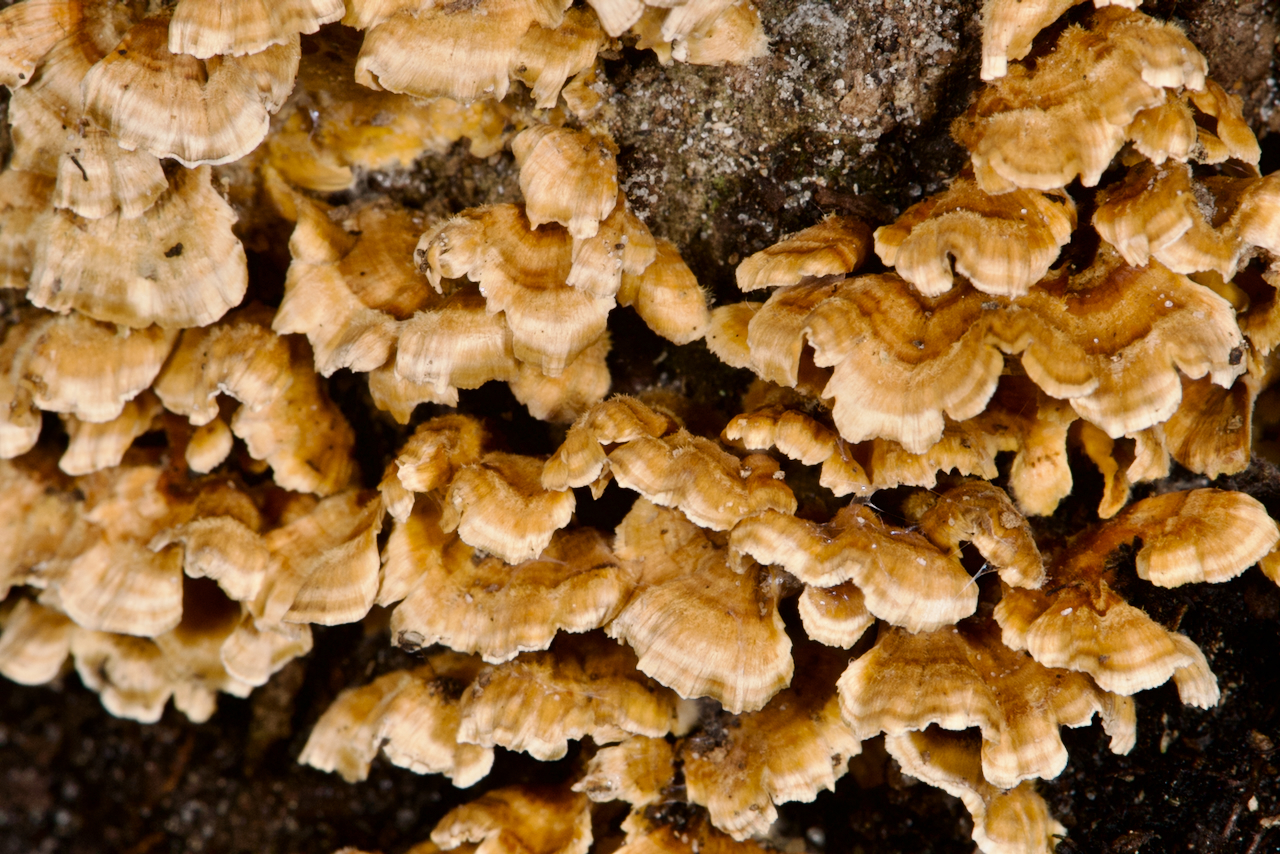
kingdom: Fungi
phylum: Basidiomycota
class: Agaricomycetes
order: Russulales
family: Stereaceae
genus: Stereum
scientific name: Stereum complicatum
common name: Crowded parchment
